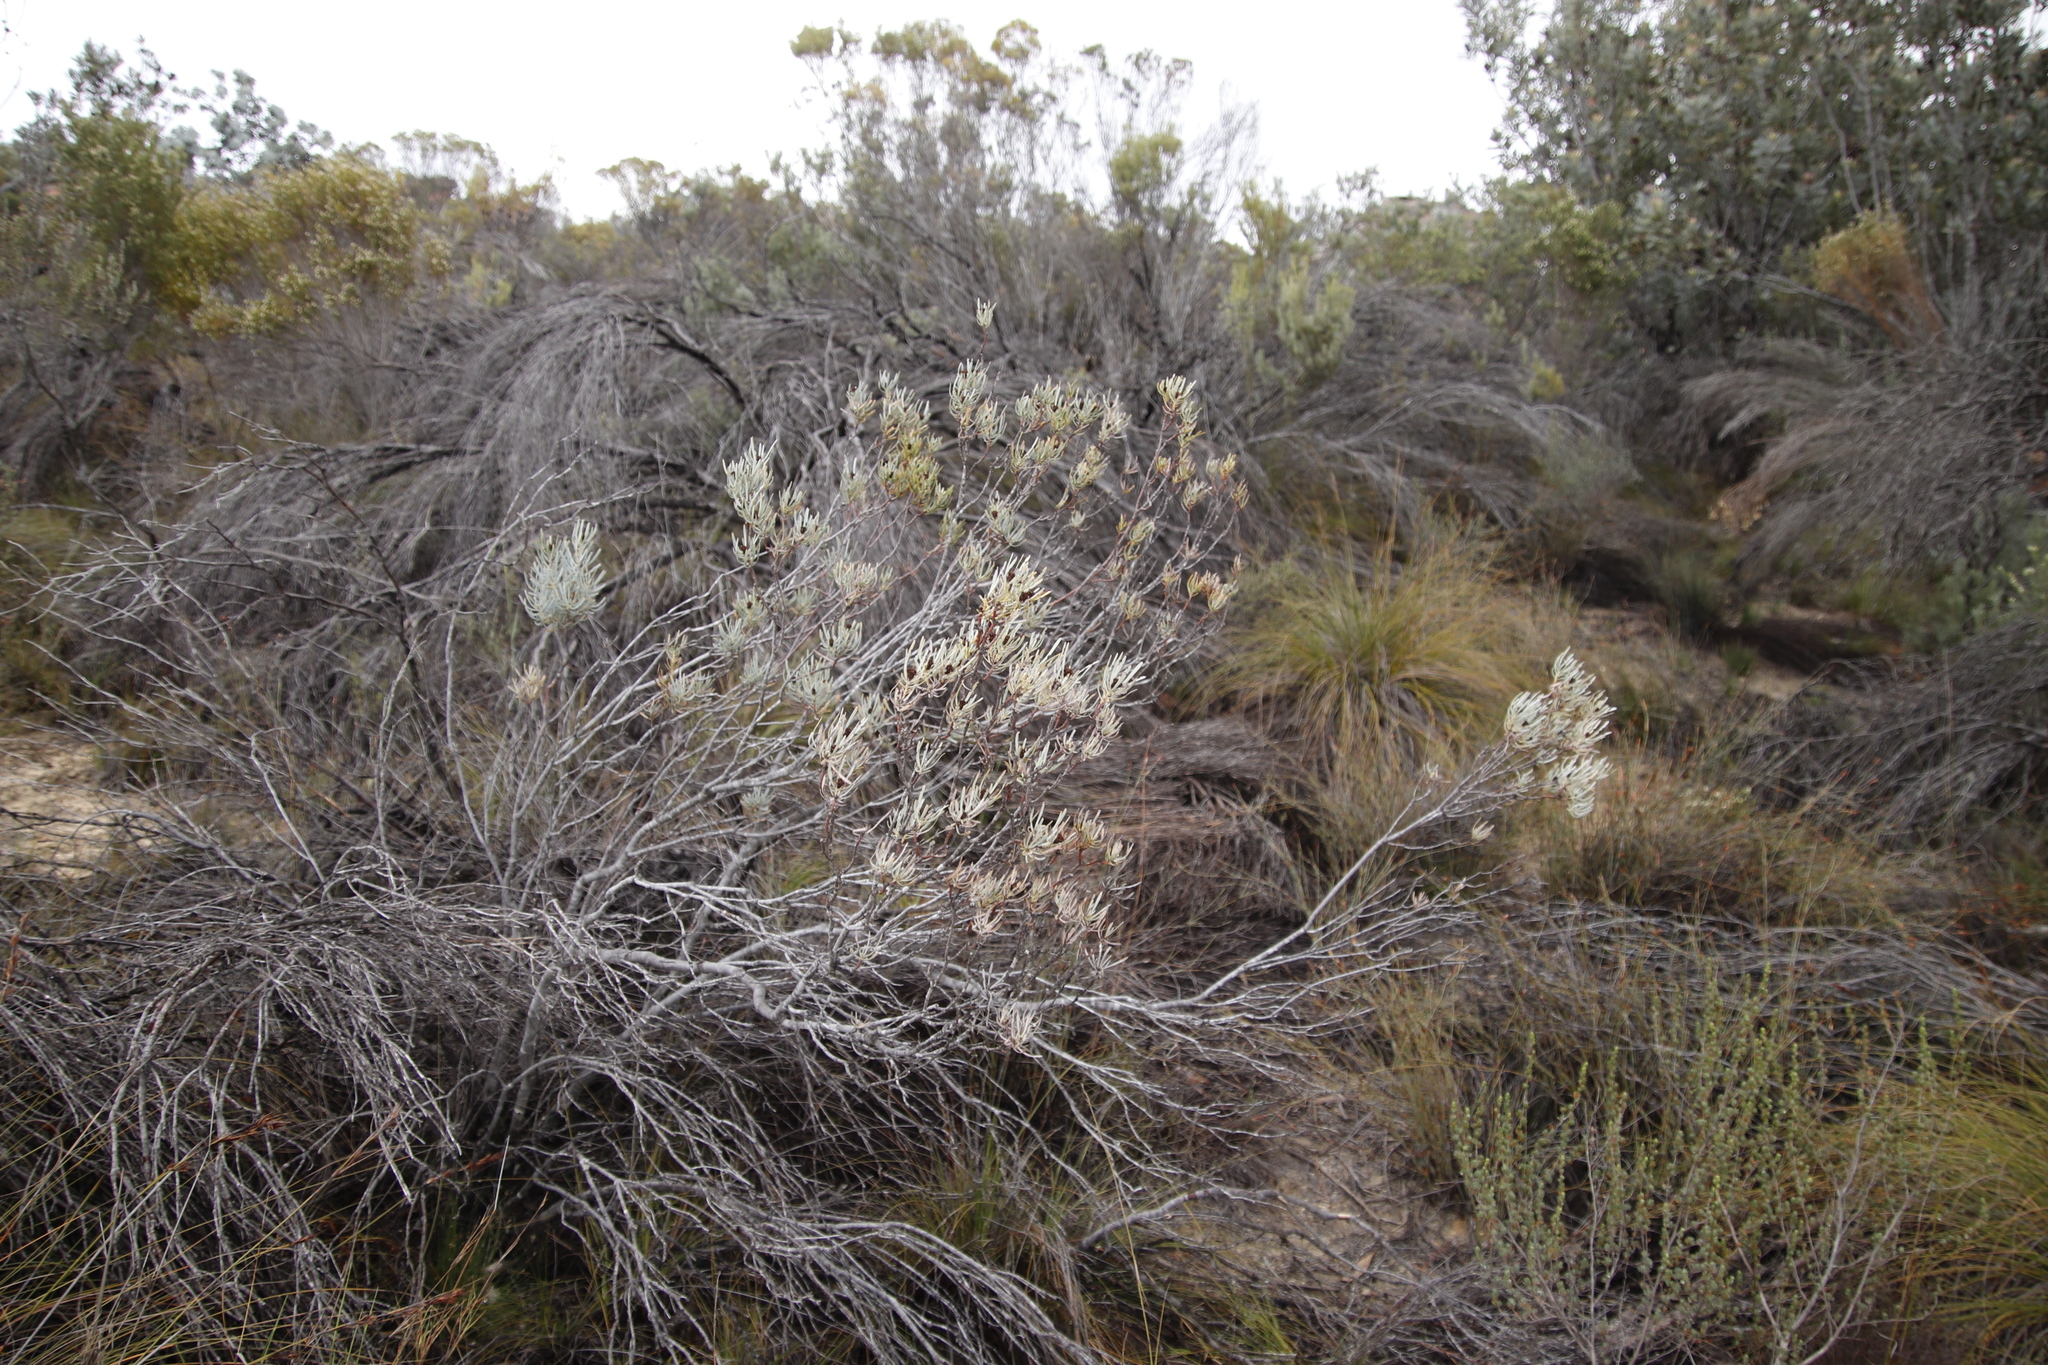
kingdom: Plantae
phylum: Tracheophyta
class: Magnoliopsida
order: Proteales
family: Proteaceae
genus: Leucadendron
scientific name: Leucadendron meyerianum
